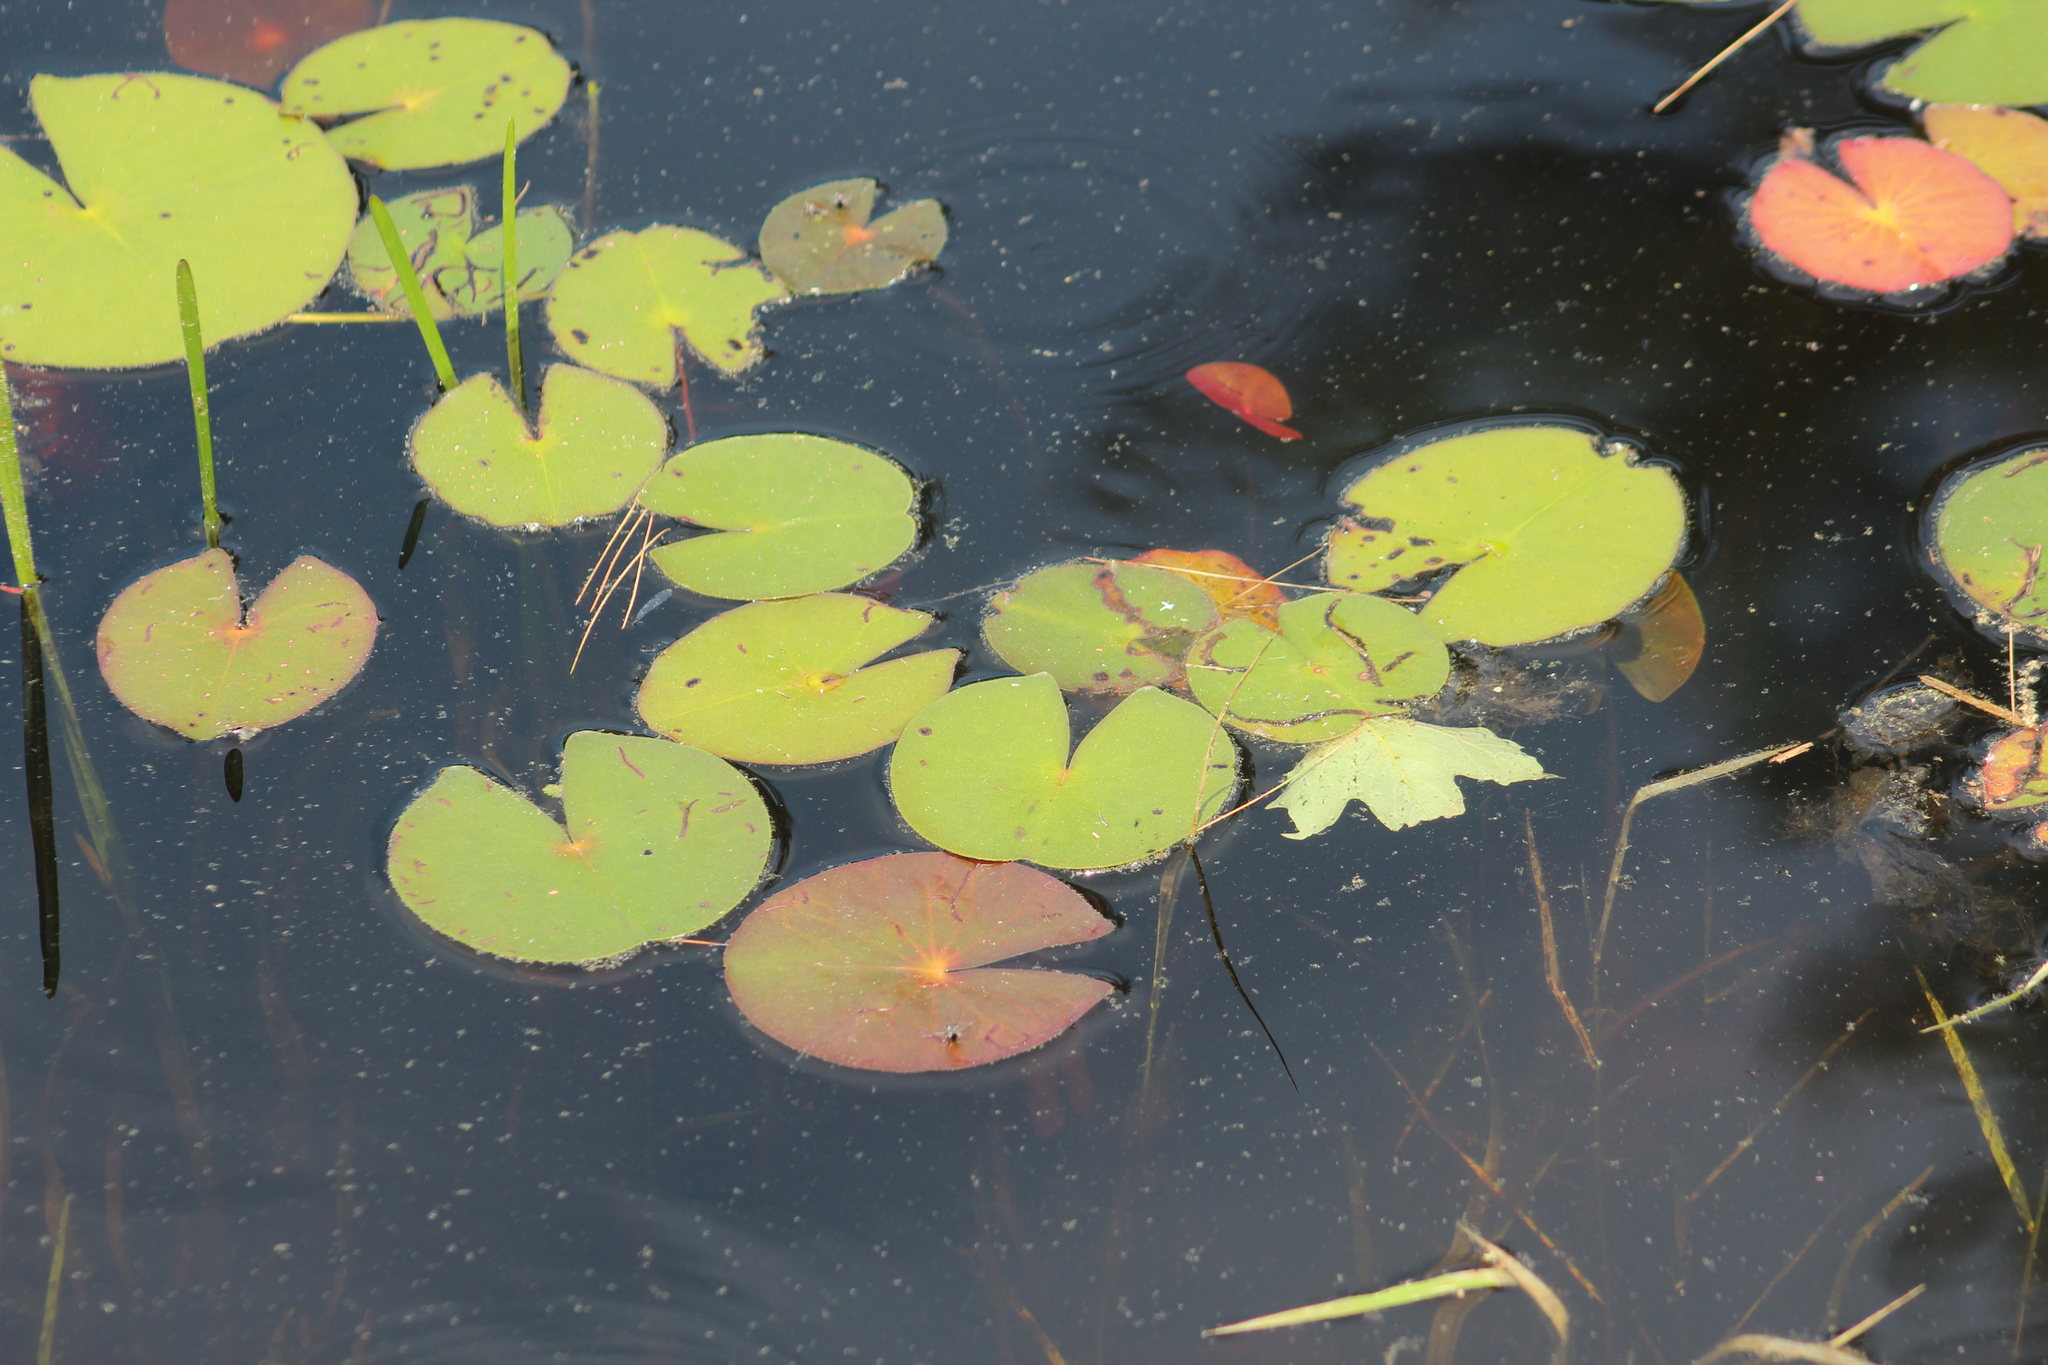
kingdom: Plantae
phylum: Tracheophyta
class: Magnoliopsida
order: Nymphaeales
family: Nymphaeaceae
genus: Nymphaea
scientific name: Nymphaea odorata
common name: Fragrant water-lily
